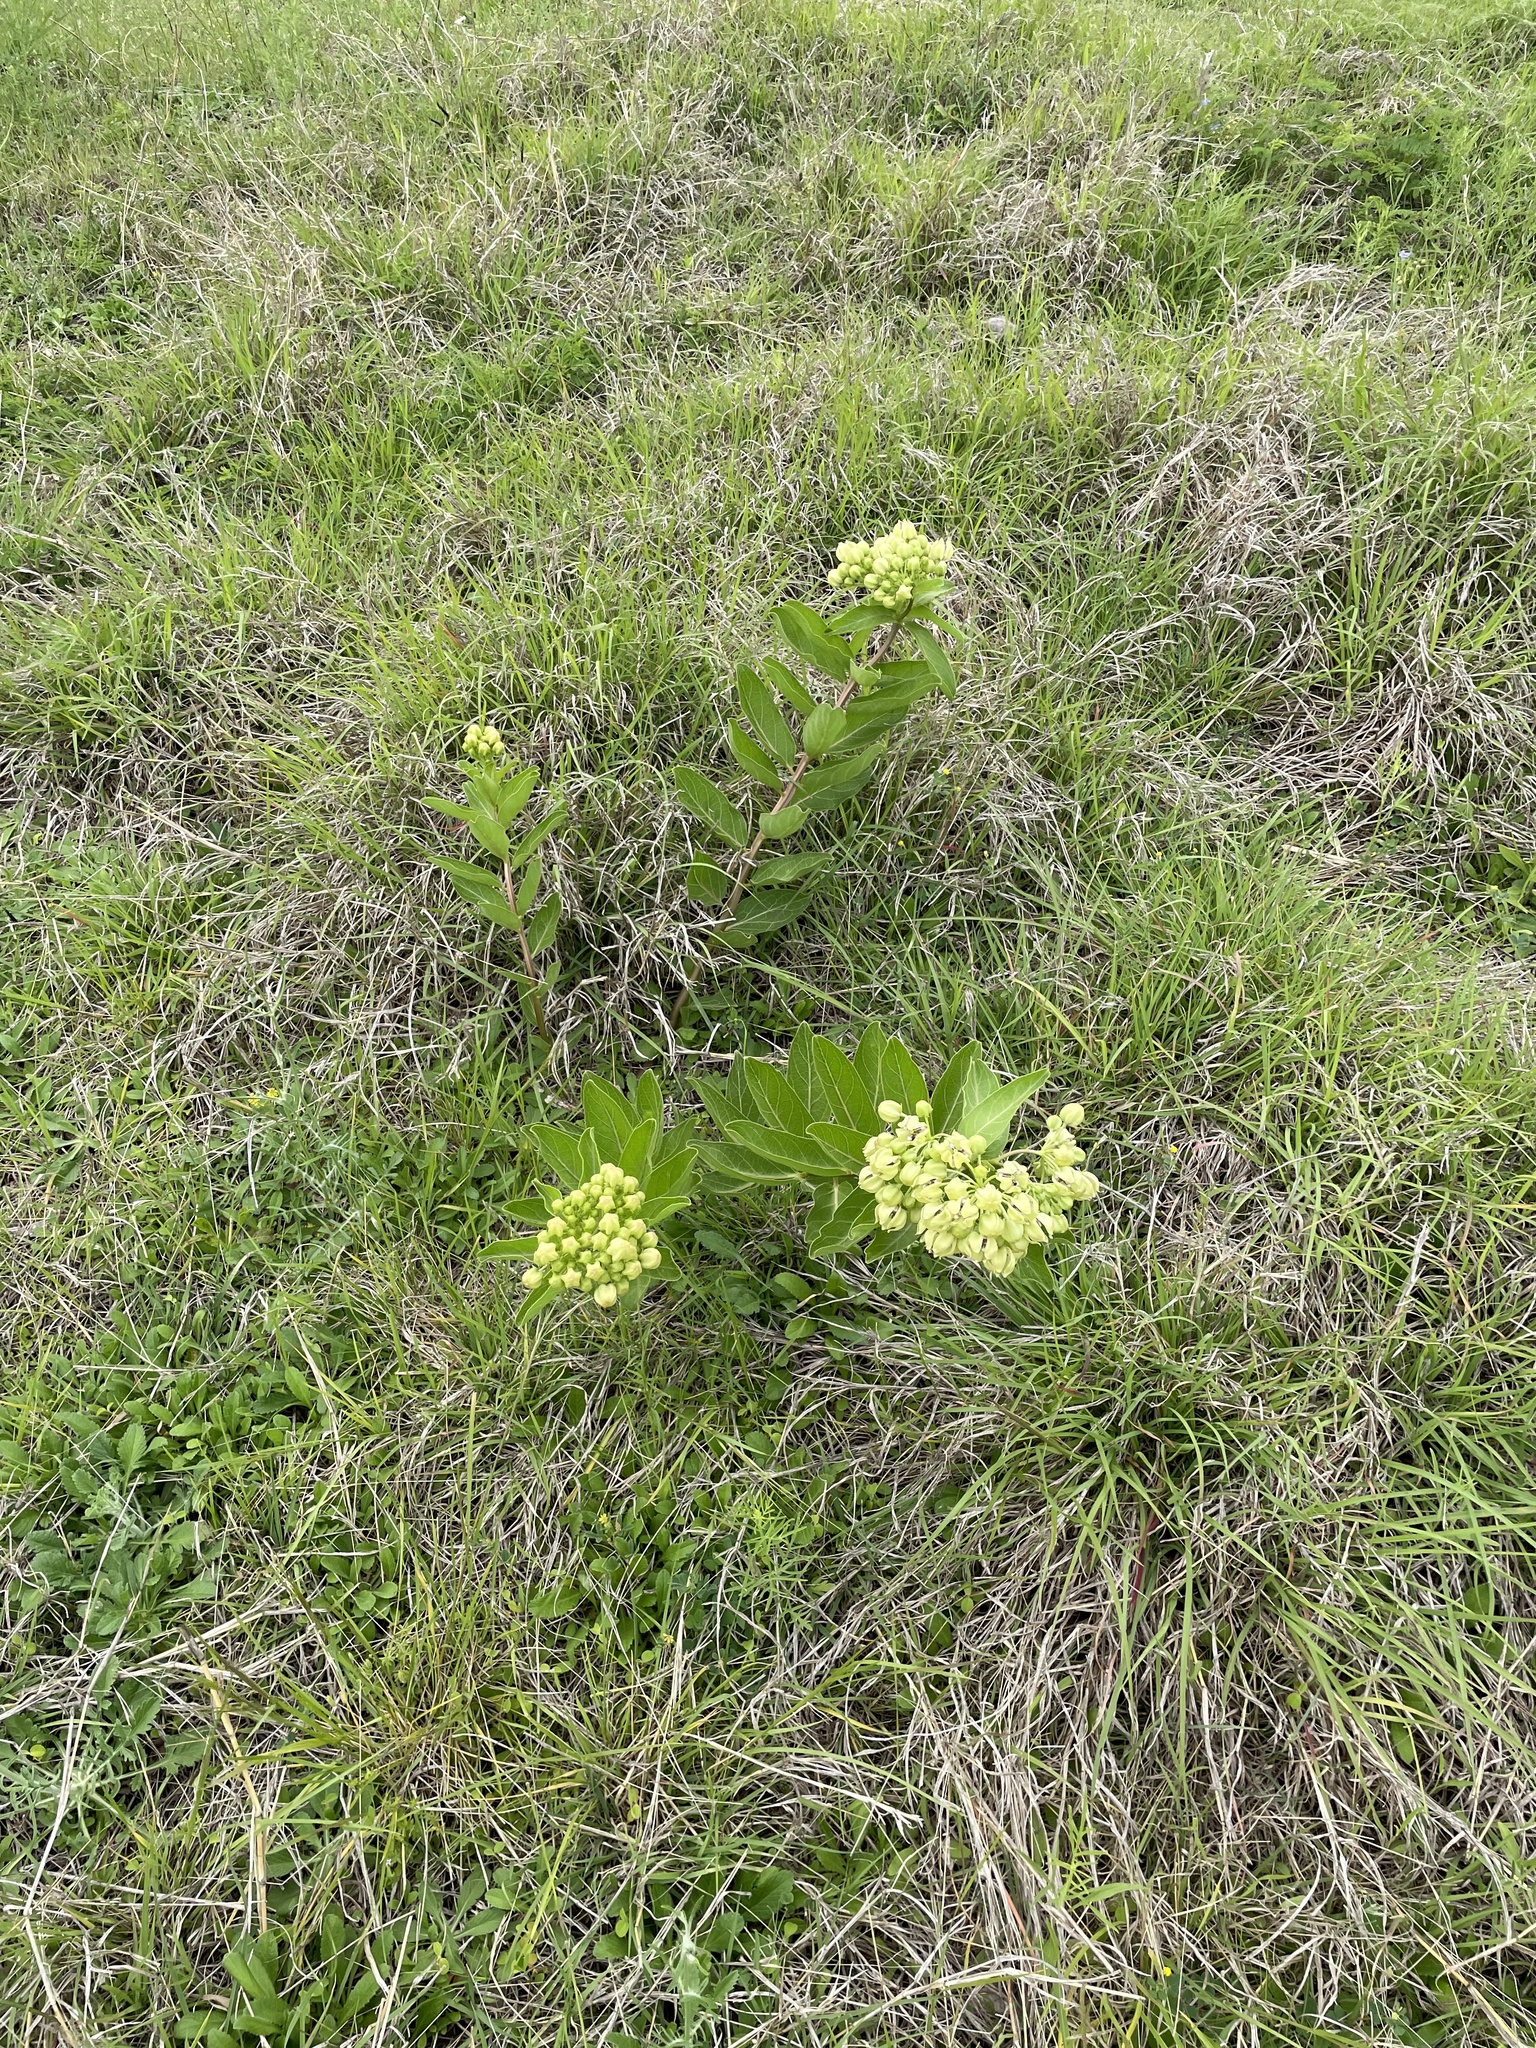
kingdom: Plantae
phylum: Tracheophyta
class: Magnoliopsida
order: Gentianales
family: Apocynaceae
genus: Asclepias
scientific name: Asclepias viridis
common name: Antelope-horns
